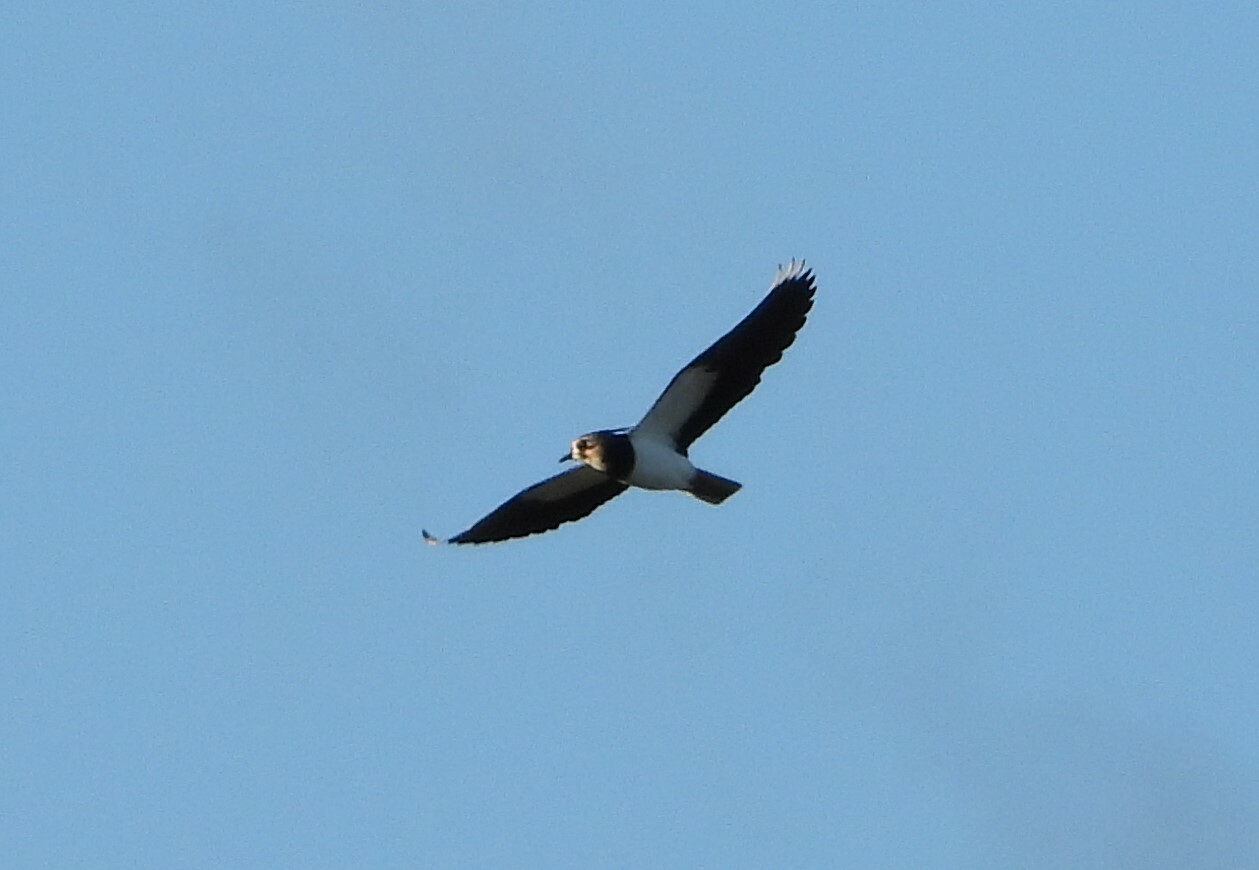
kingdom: Animalia
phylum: Chordata
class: Aves
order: Charadriiformes
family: Charadriidae
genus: Vanellus
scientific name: Vanellus vanellus
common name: Northern lapwing
